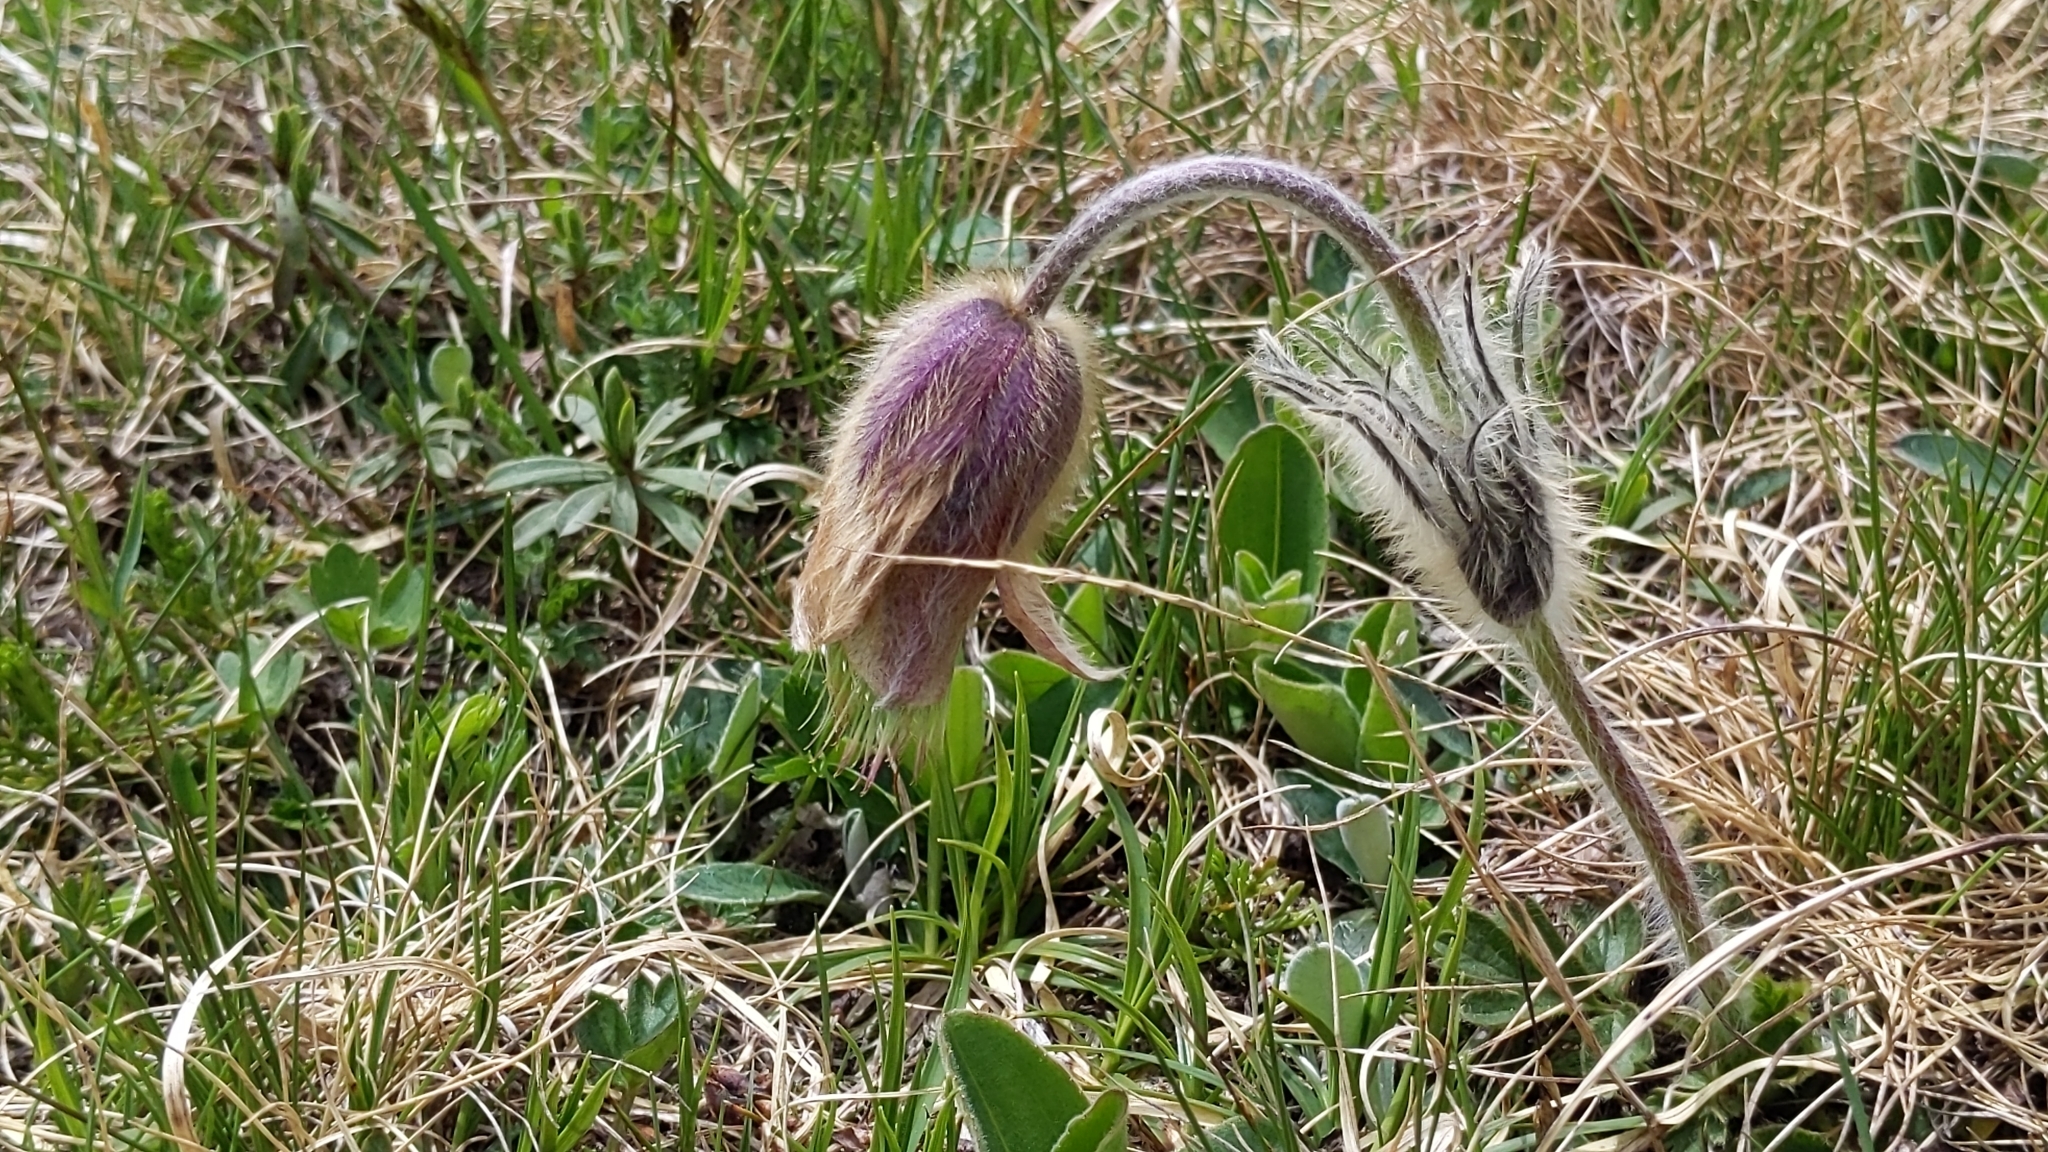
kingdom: Plantae
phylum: Tracheophyta
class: Magnoliopsida
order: Ranunculales
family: Ranunculaceae
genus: Pulsatilla
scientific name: Pulsatilla vernalis
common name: Spring pasque flower
